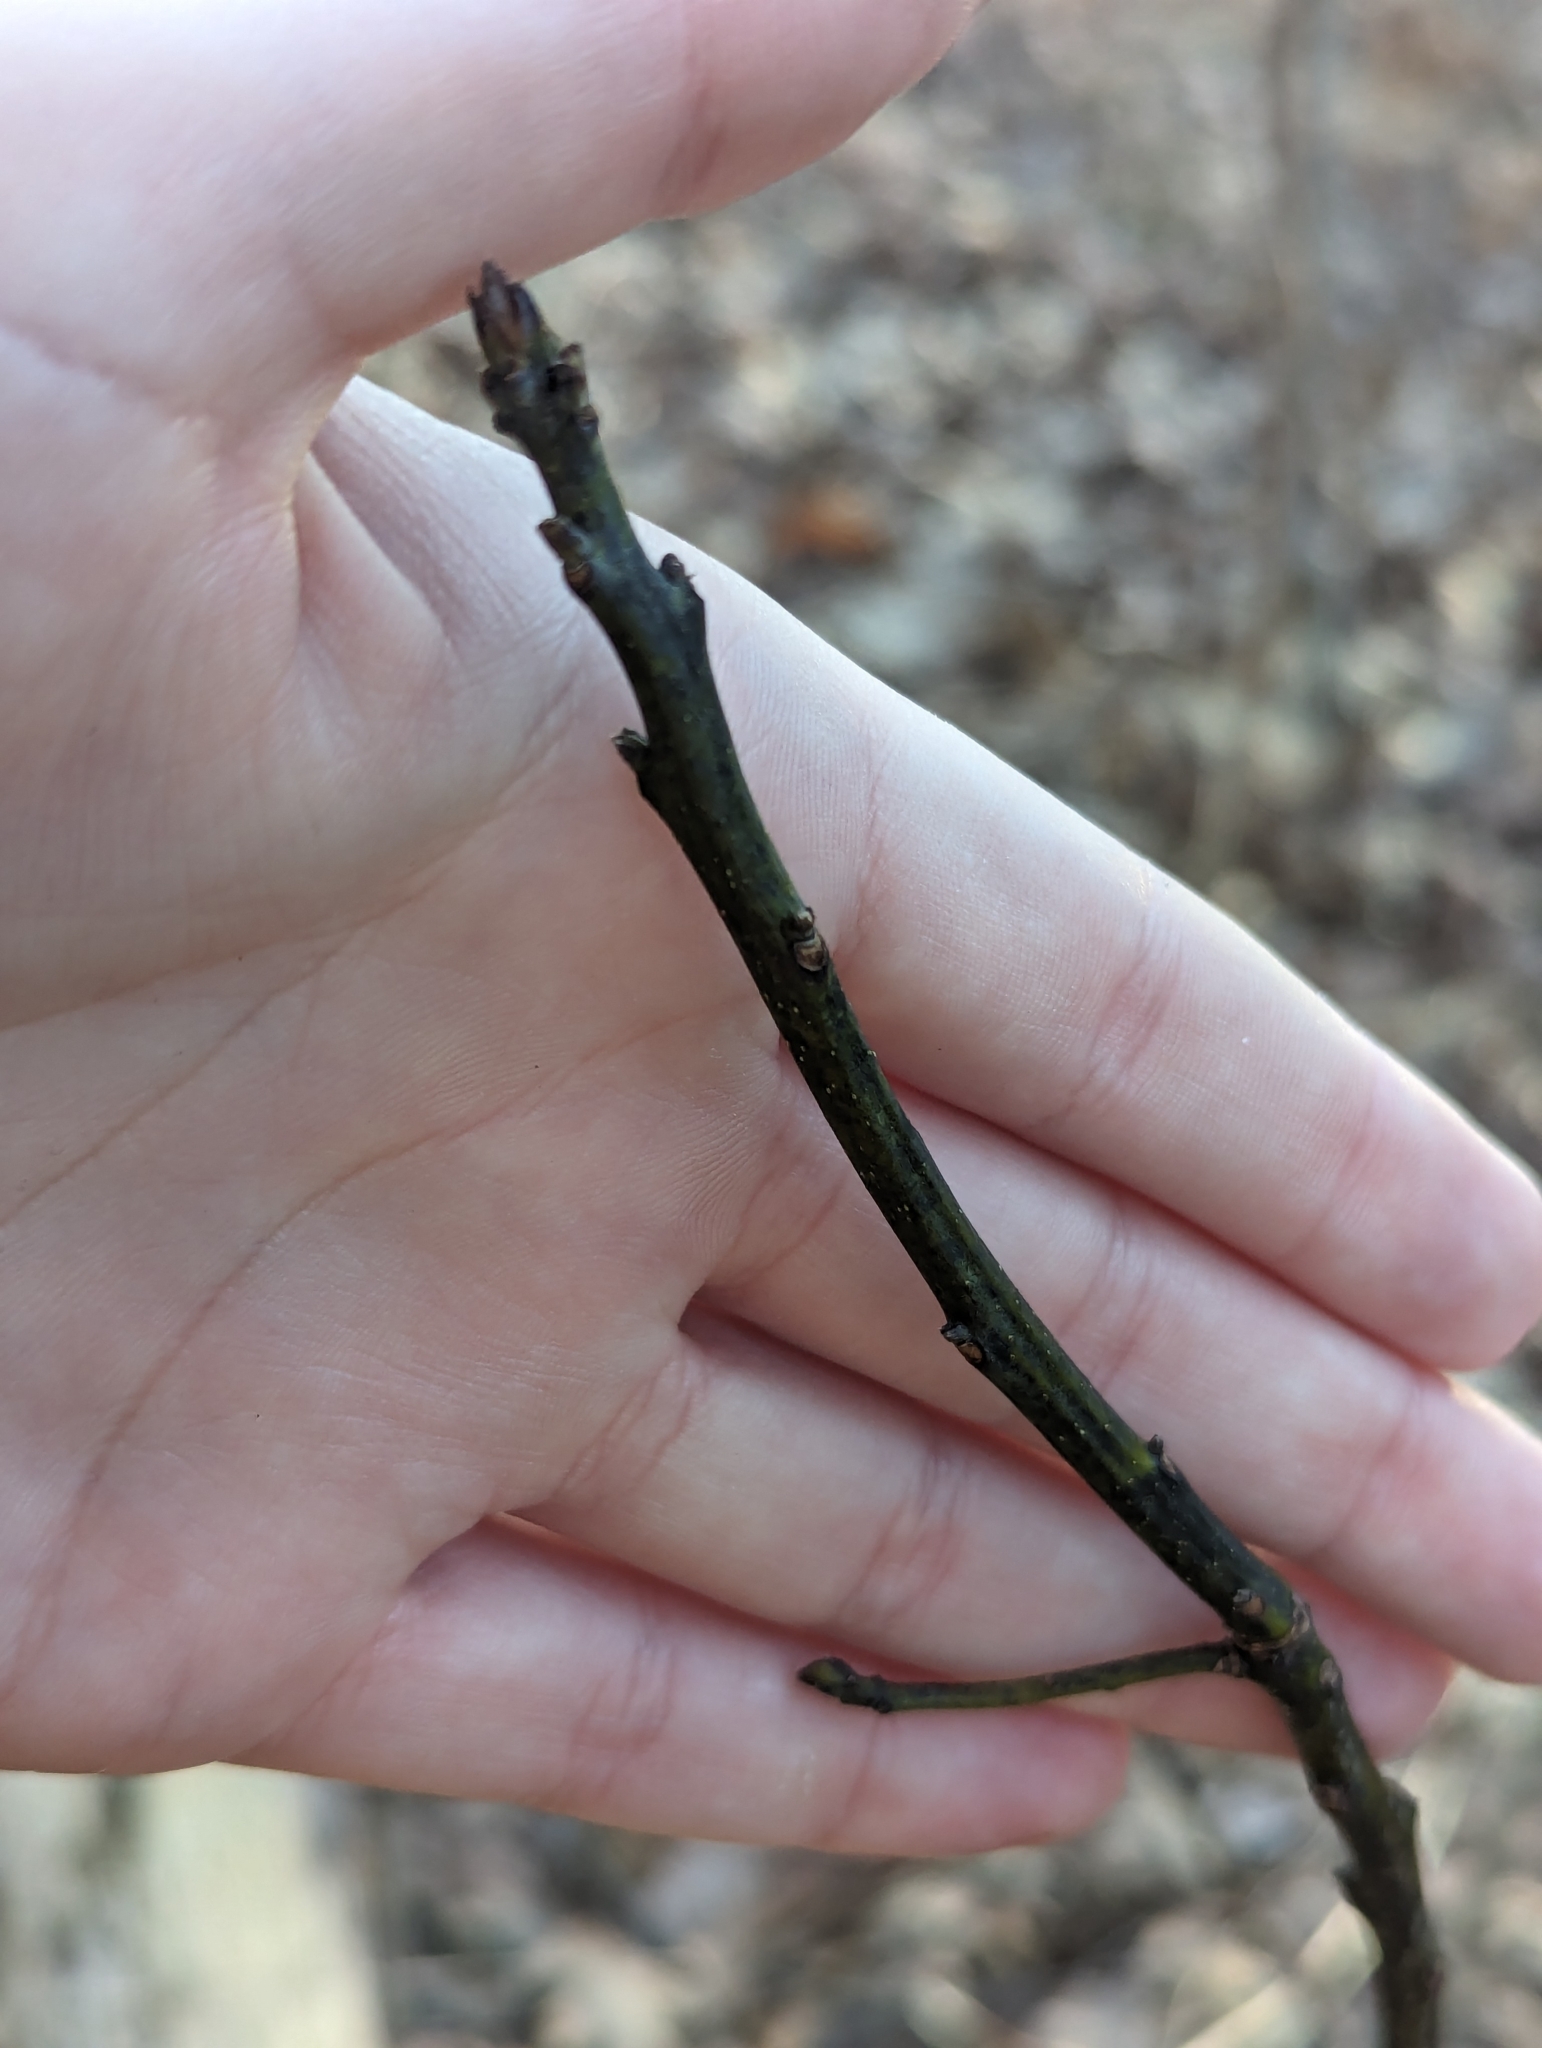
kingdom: Plantae
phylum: Tracheophyta
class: Magnoliopsida
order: Laurales
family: Lauraceae
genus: Sassafras
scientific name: Sassafras albidum
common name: Sassafras
